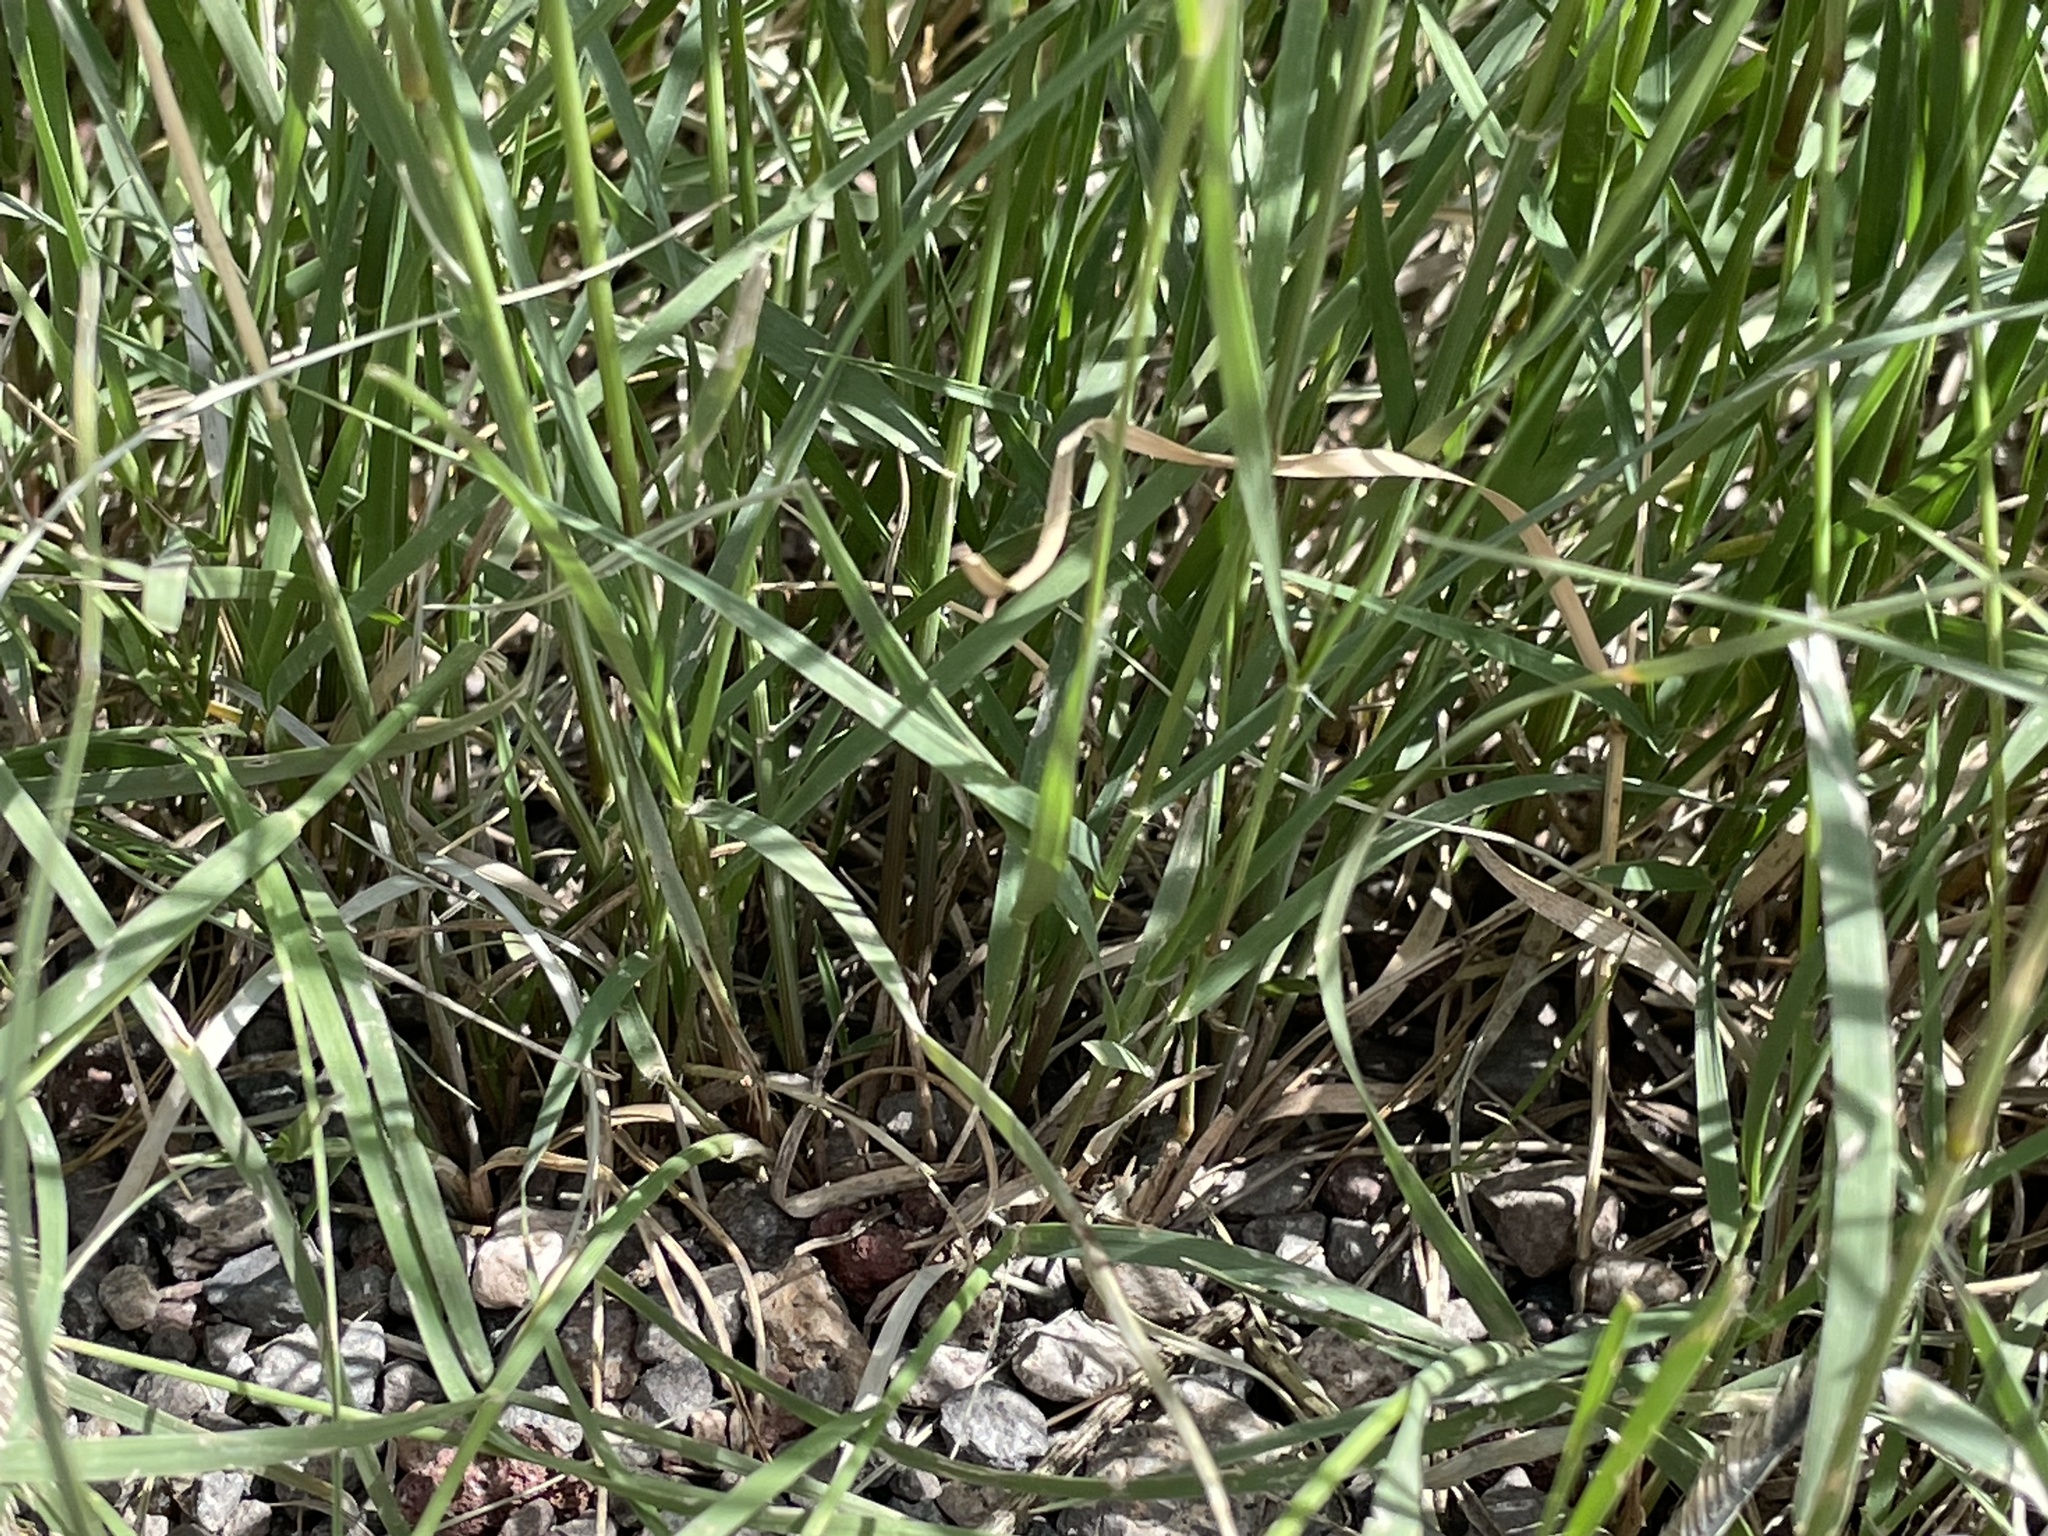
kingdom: Plantae
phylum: Tracheophyta
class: Liliopsida
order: Poales
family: Poaceae
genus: Bouteloua
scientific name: Bouteloua gracilis
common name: Blue grama
